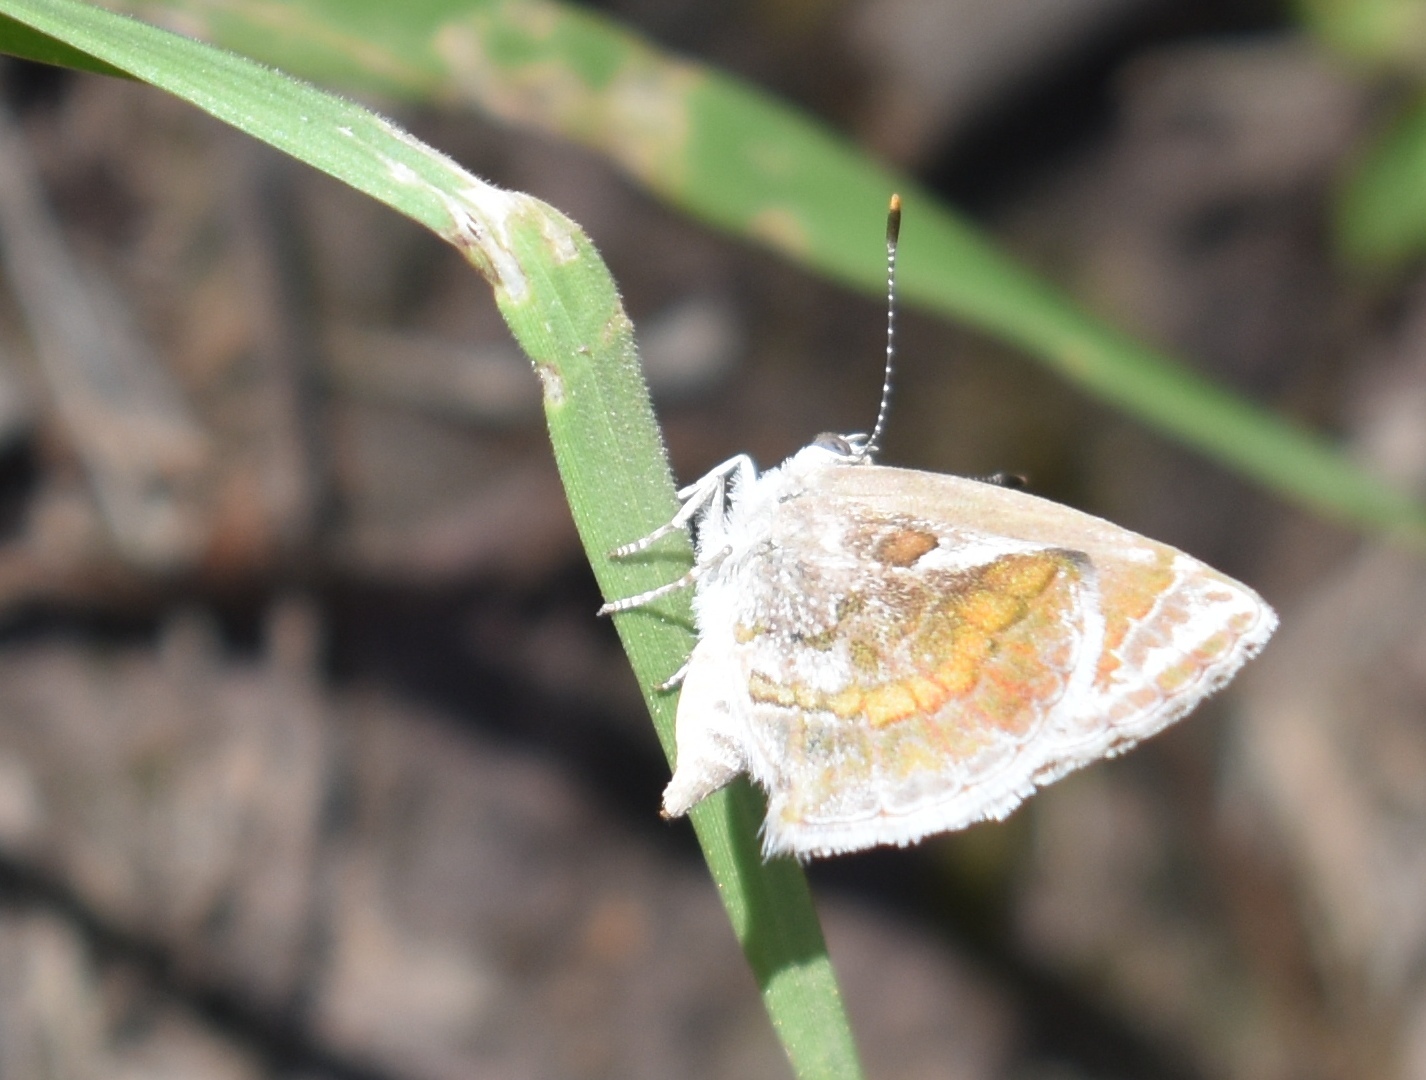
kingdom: Animalia
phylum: Arthropoda
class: Insecta
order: Lepidoptera
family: Lycaenidae
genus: Strymon
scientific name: Strymon bazochii
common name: Lantana scrub-hairstreak
